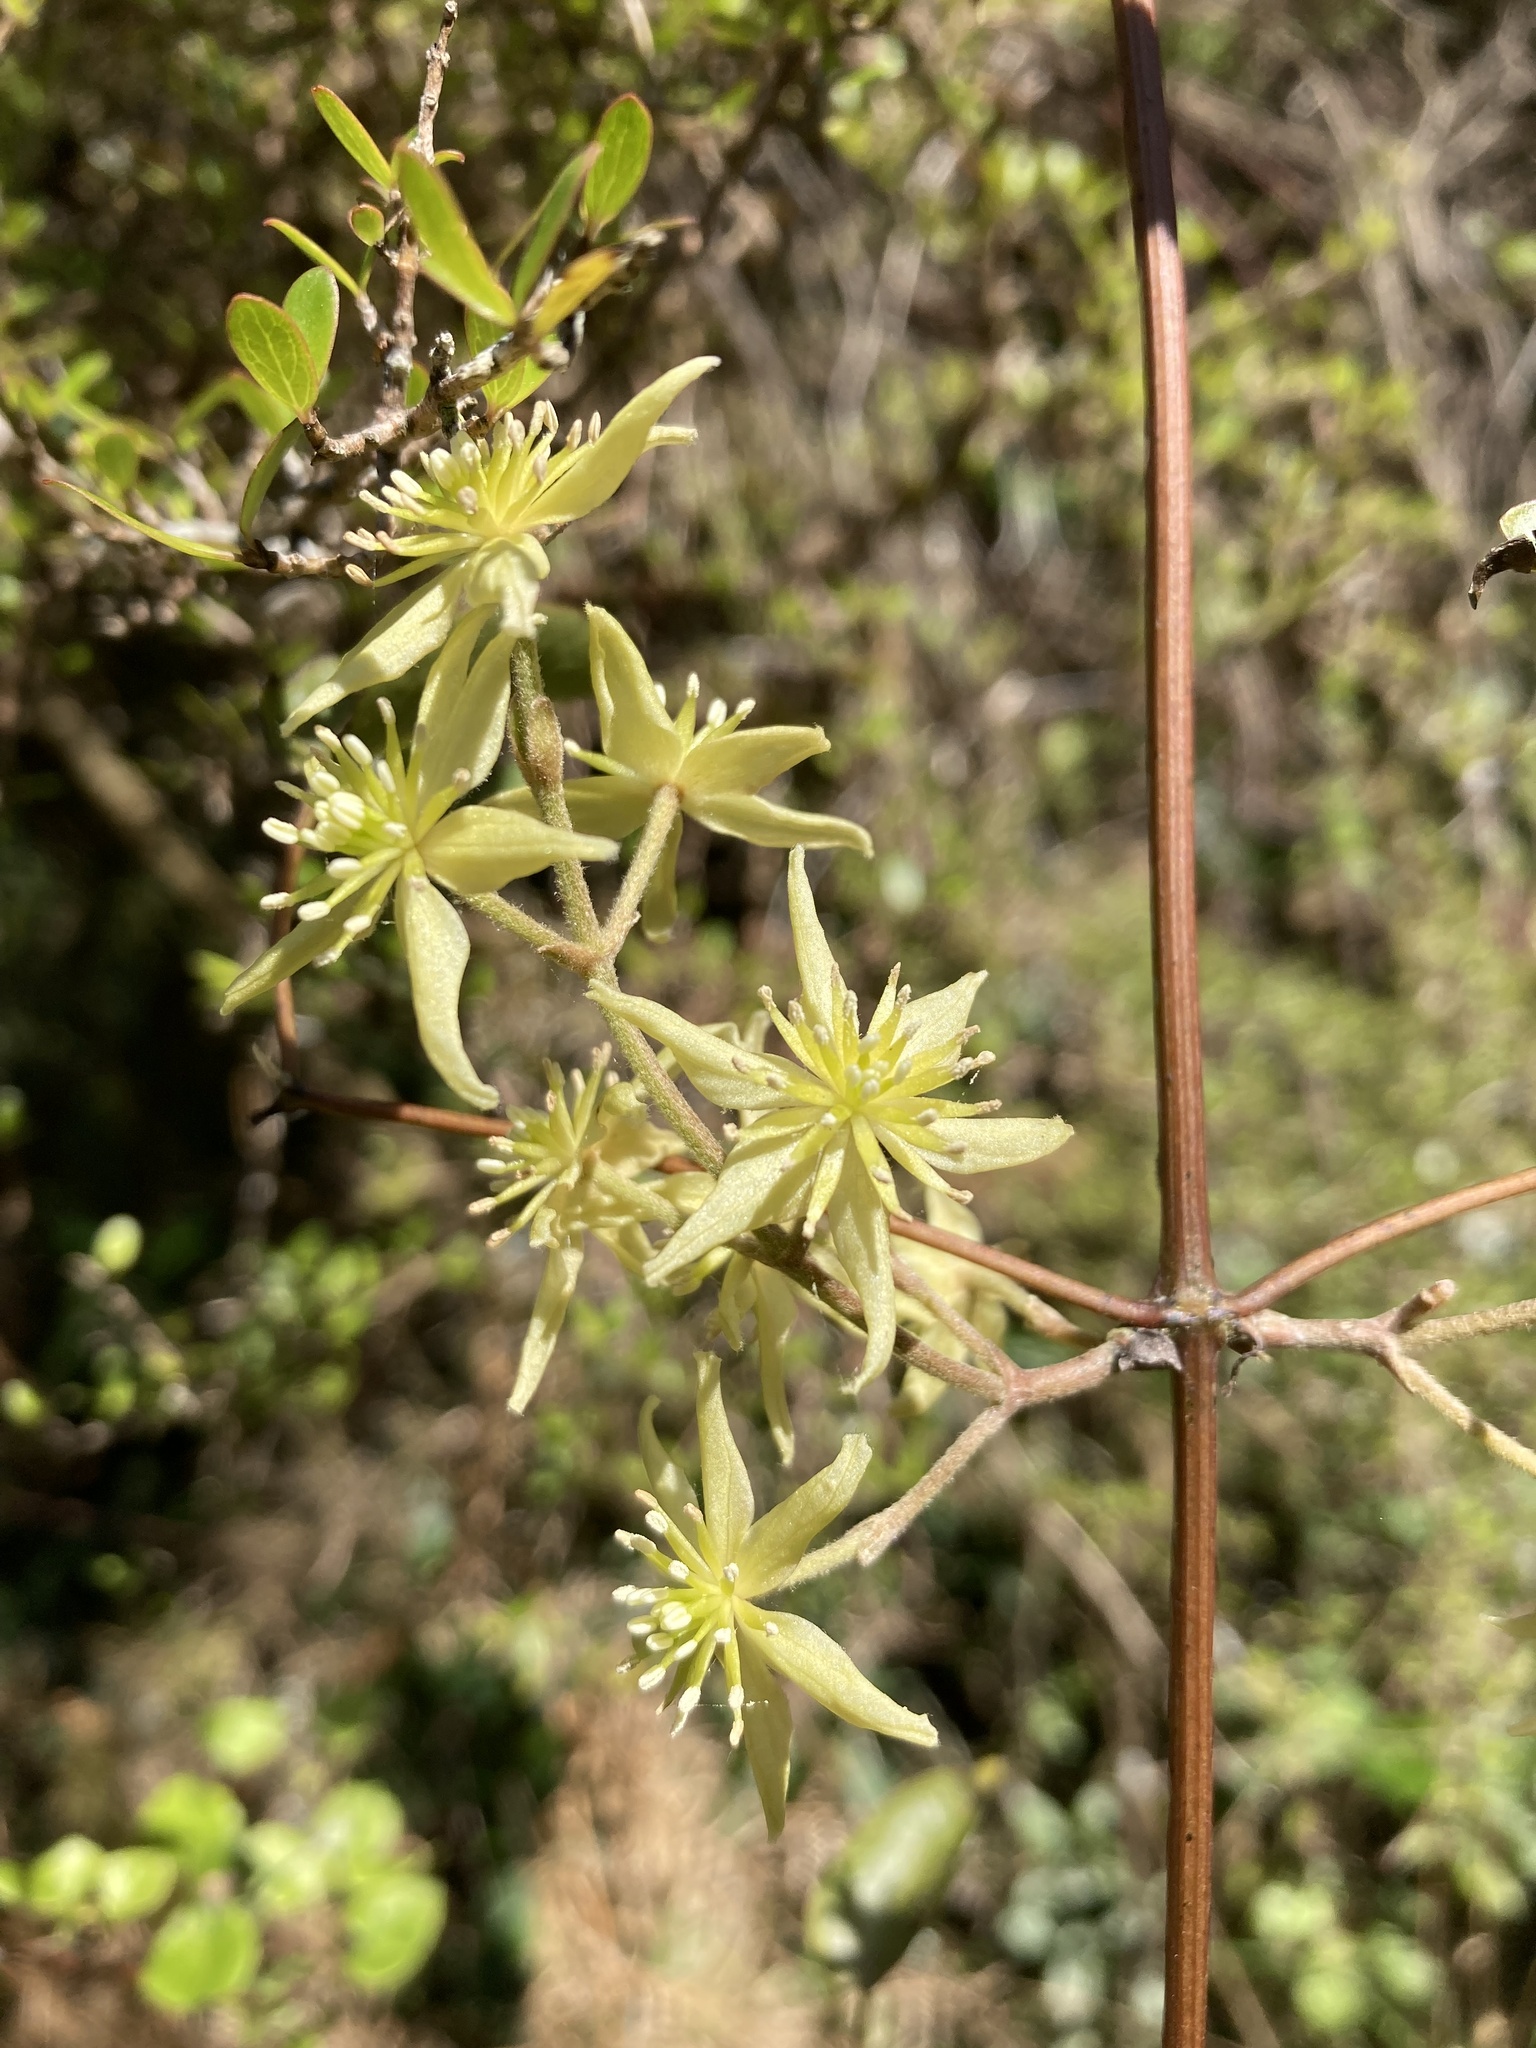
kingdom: Plantae
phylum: Tracheophyta
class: Magnoliopsida
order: Ranunculales
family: Ranunculaceae
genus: Clematis
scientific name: Clematis foetida
